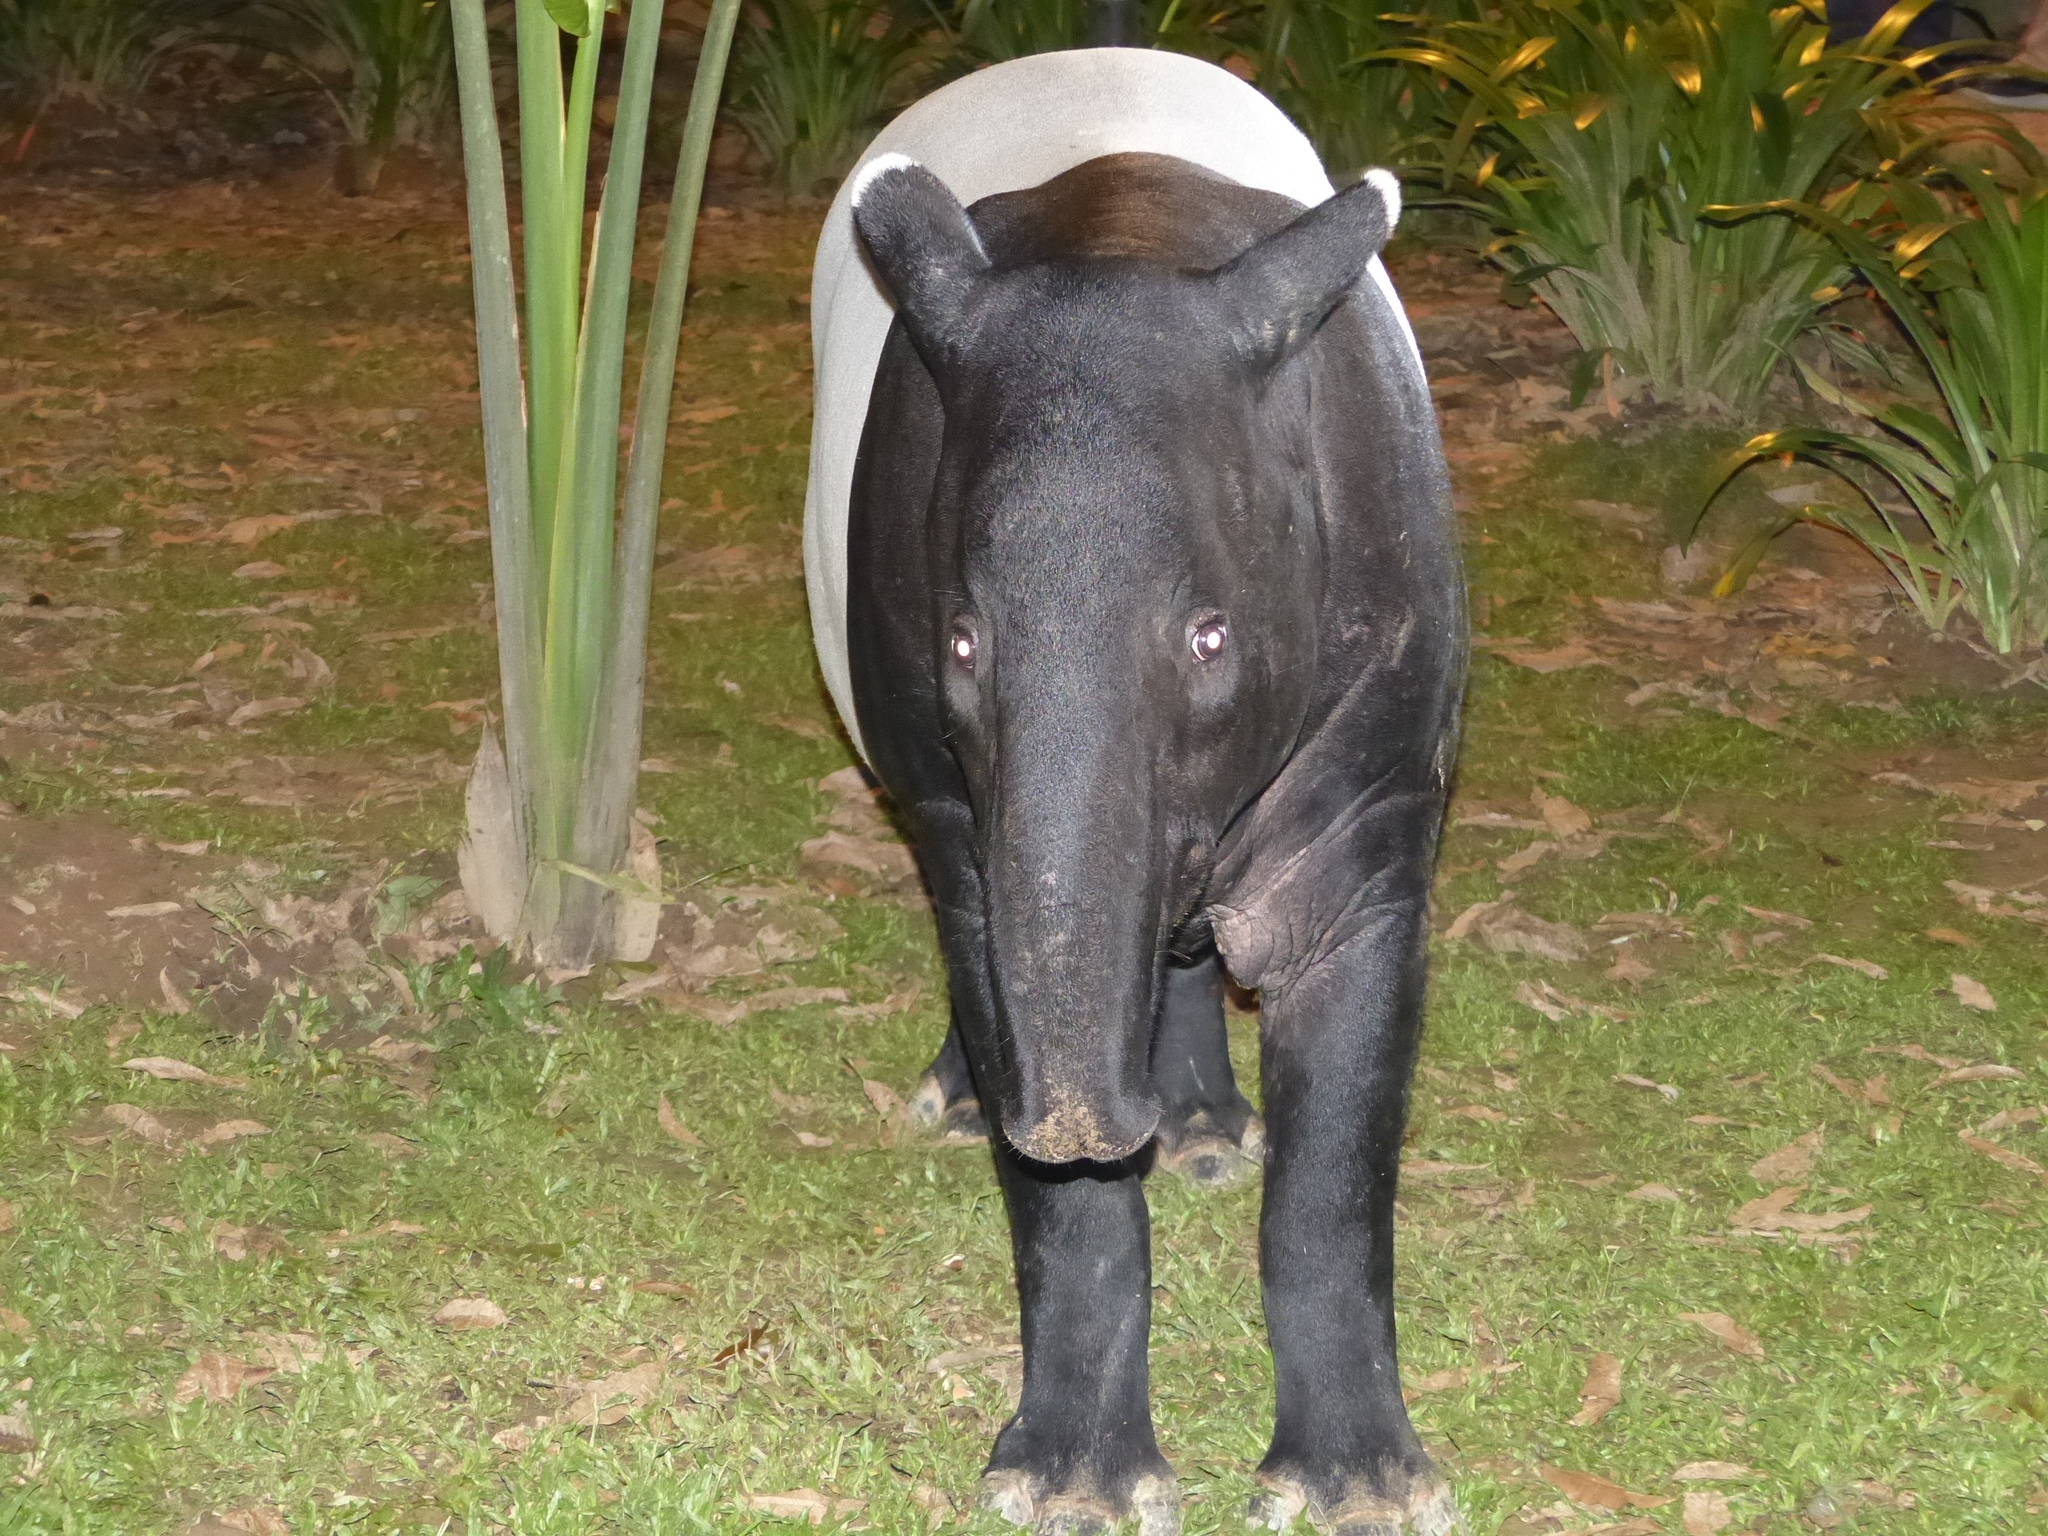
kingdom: Animalia
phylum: Chordata
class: Mammalia
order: Perissodactyla
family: Tapiridae
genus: Acrocodia
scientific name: Acrocodia indica
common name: Malayan tapir
